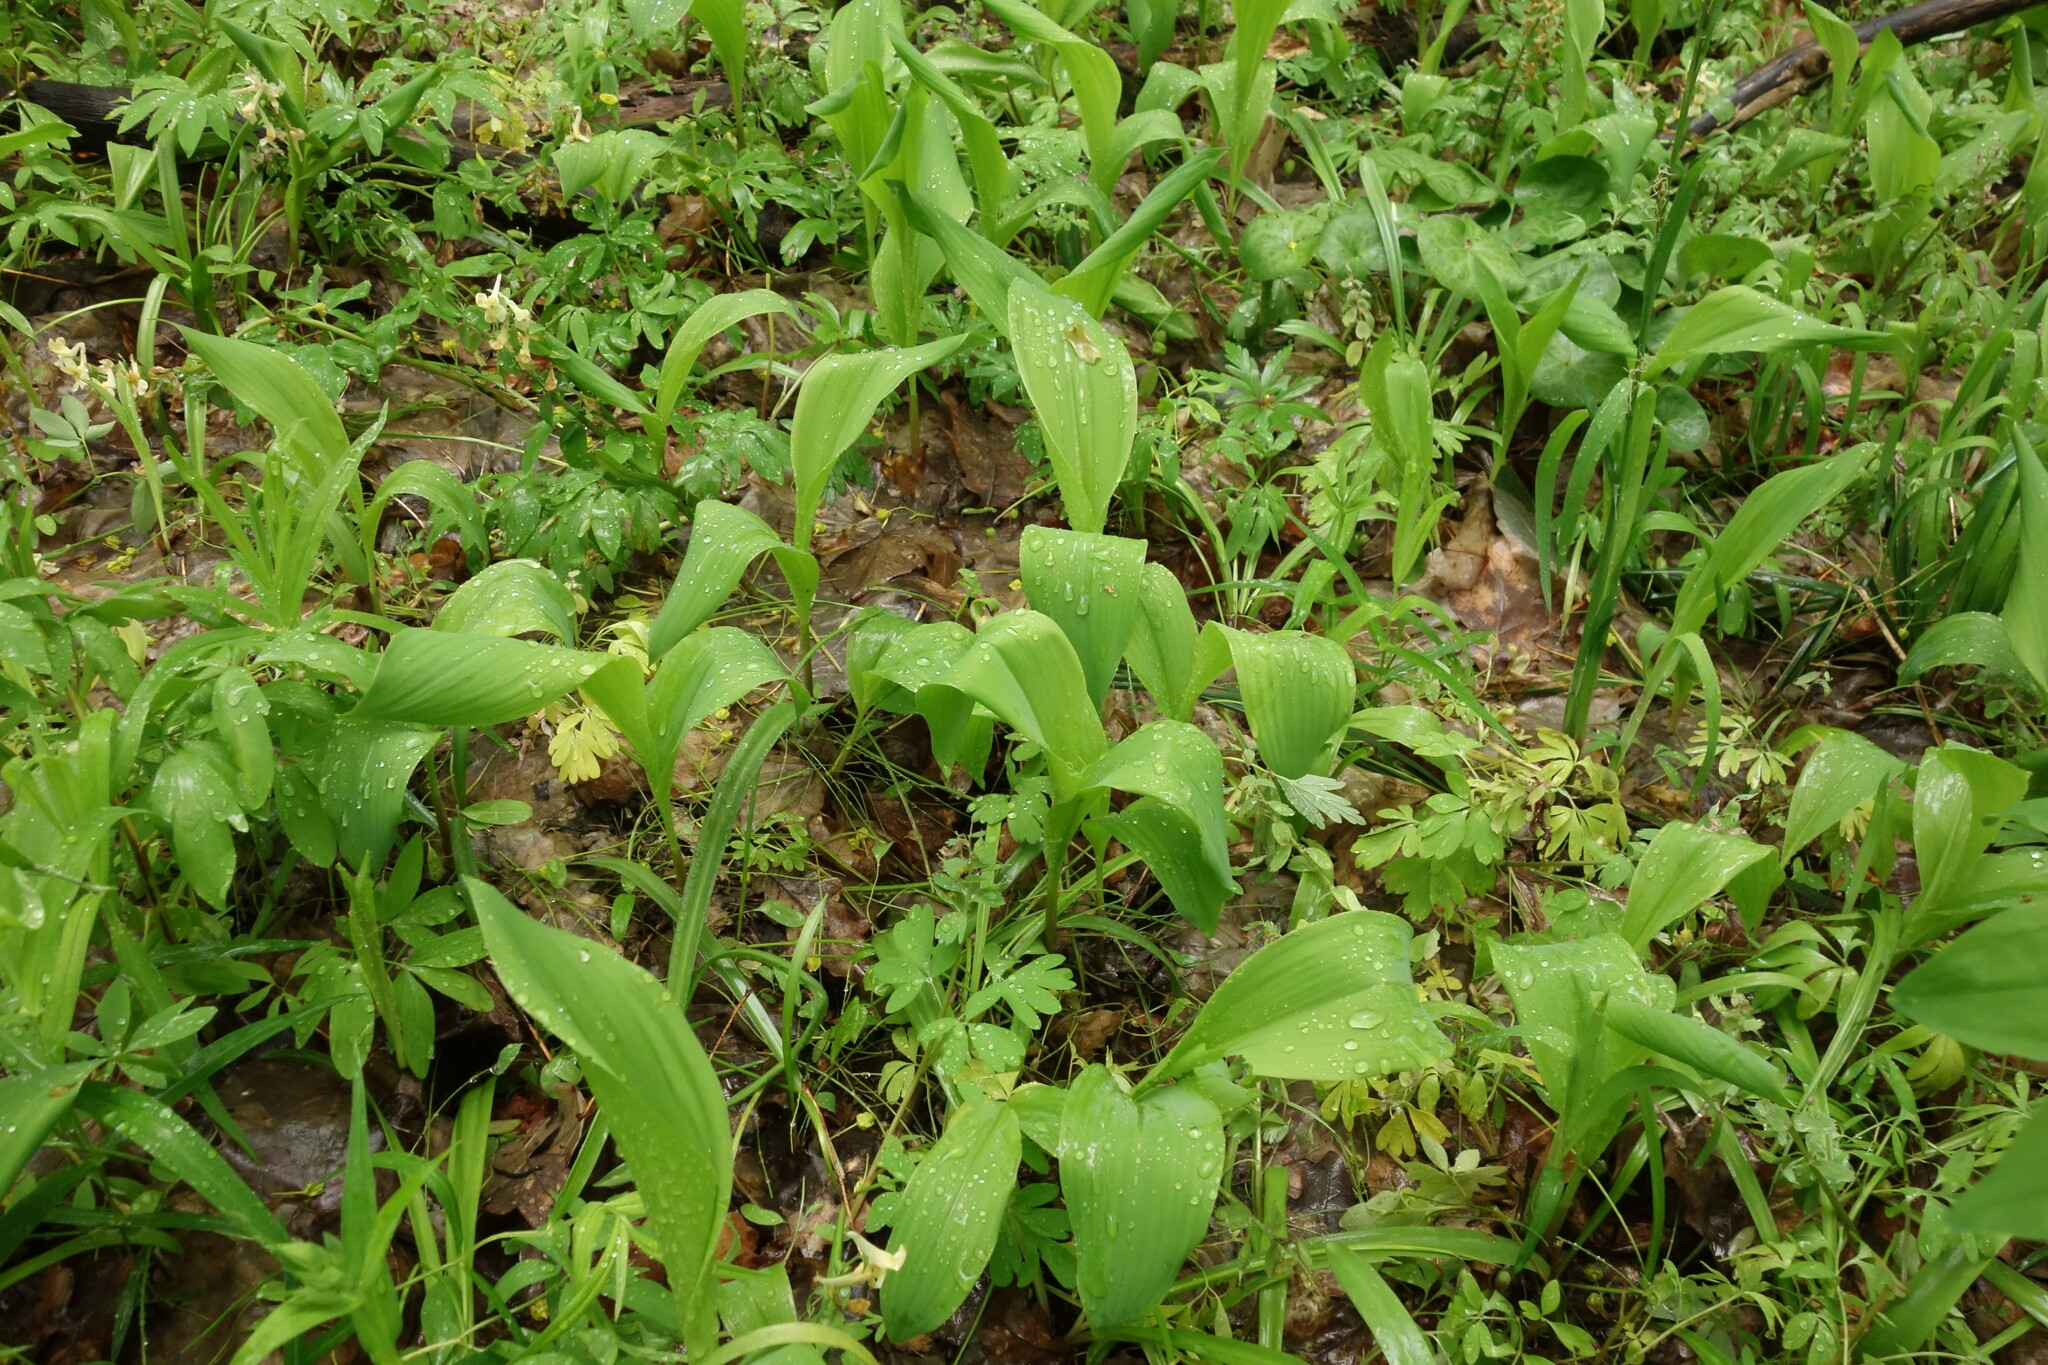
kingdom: Plantae
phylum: Tracheophyta
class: Liliopsida
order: Asparagales
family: Asparagaceae
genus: Convallaria
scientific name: Convallaria majalis
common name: Lily-of-the-valley
